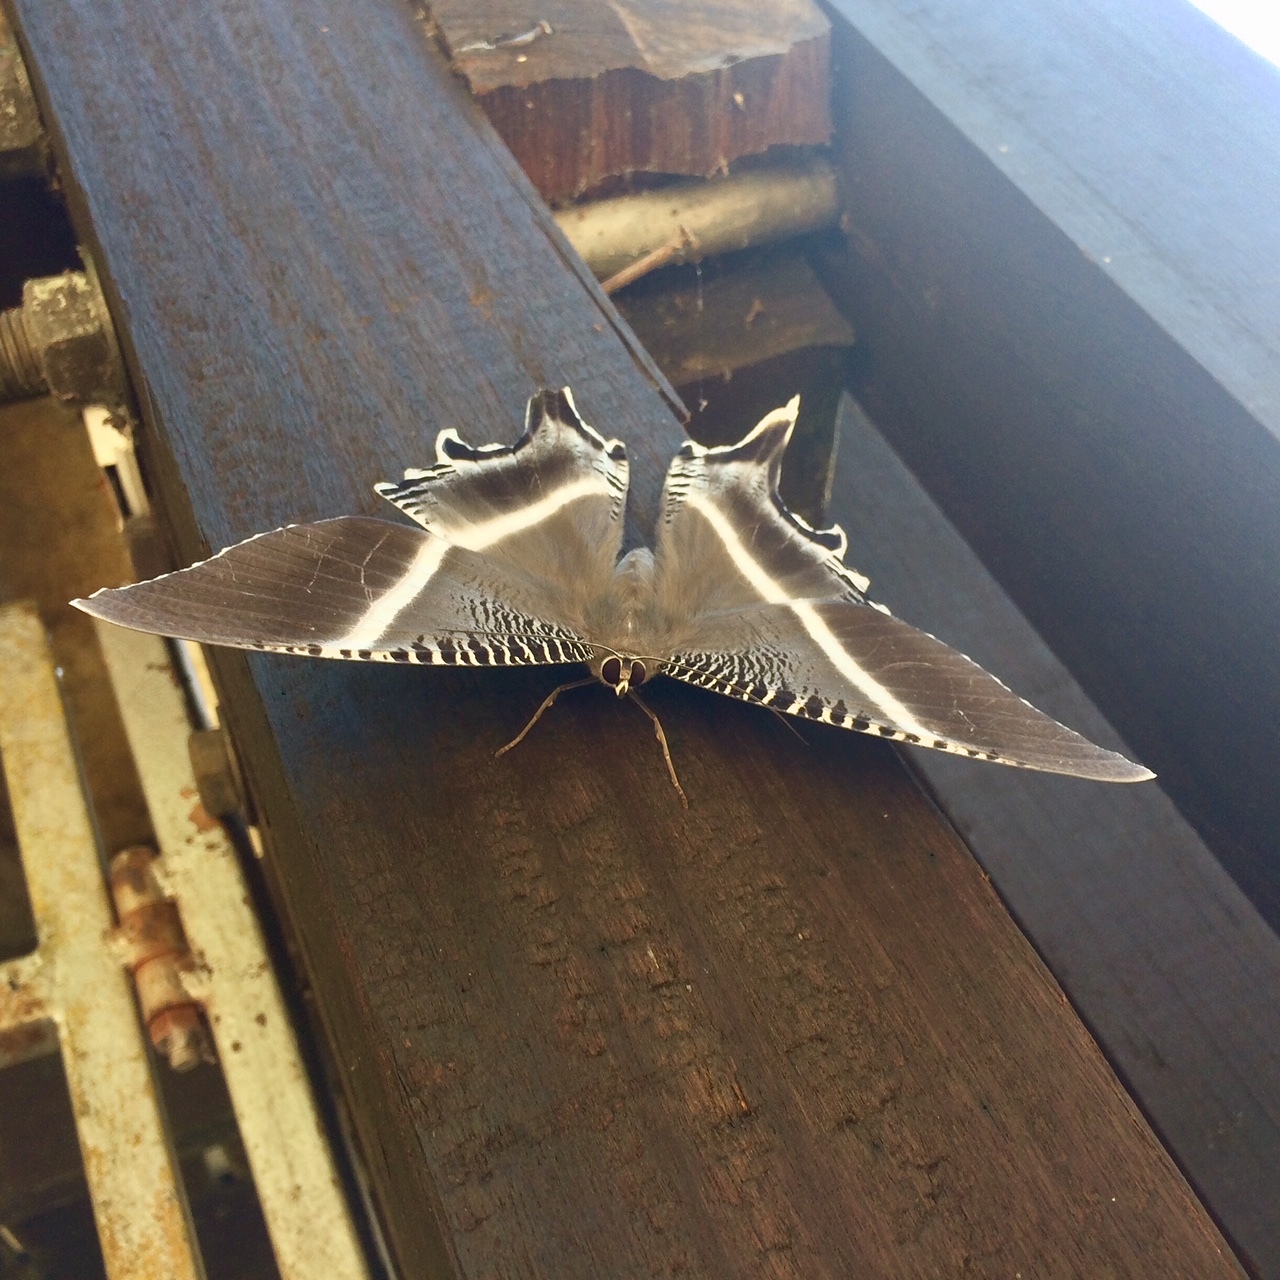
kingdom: Animalia
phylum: Arthropoda
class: Insecta
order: Lepidoptera
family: Uraniidae
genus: Lyssa
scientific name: Lyssa menoetius
